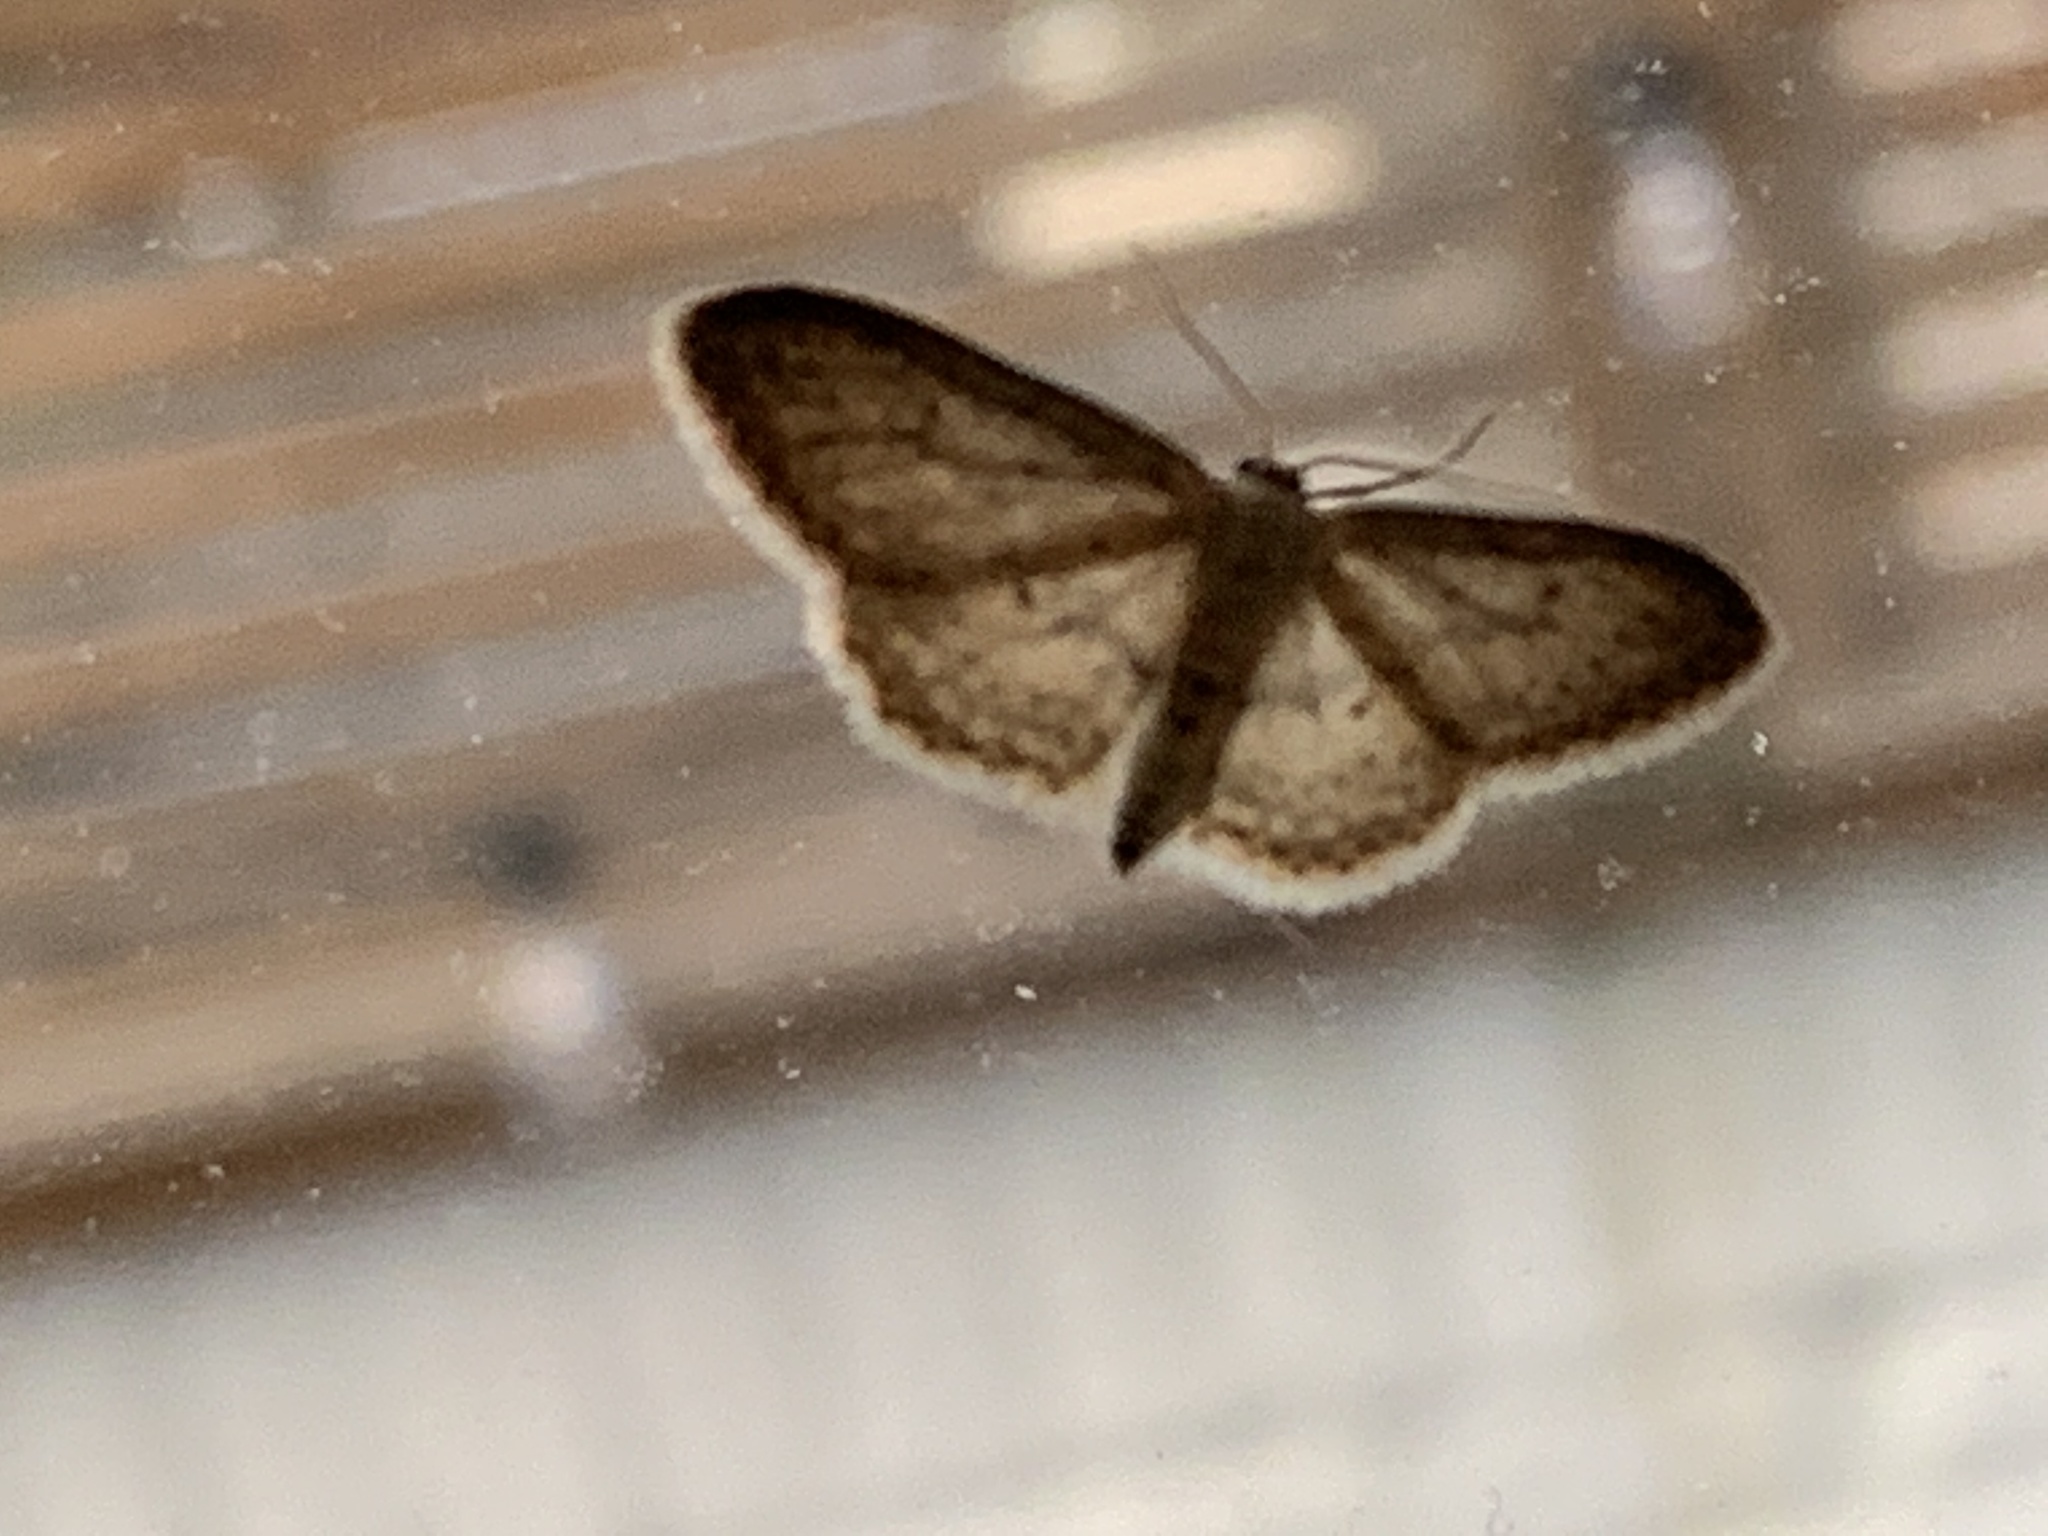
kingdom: Animalia
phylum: Arthropoda
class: Insecta
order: Lepidoptera
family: Geometridae
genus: Idaea
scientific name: Idaea seriata
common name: Small dusty wave
